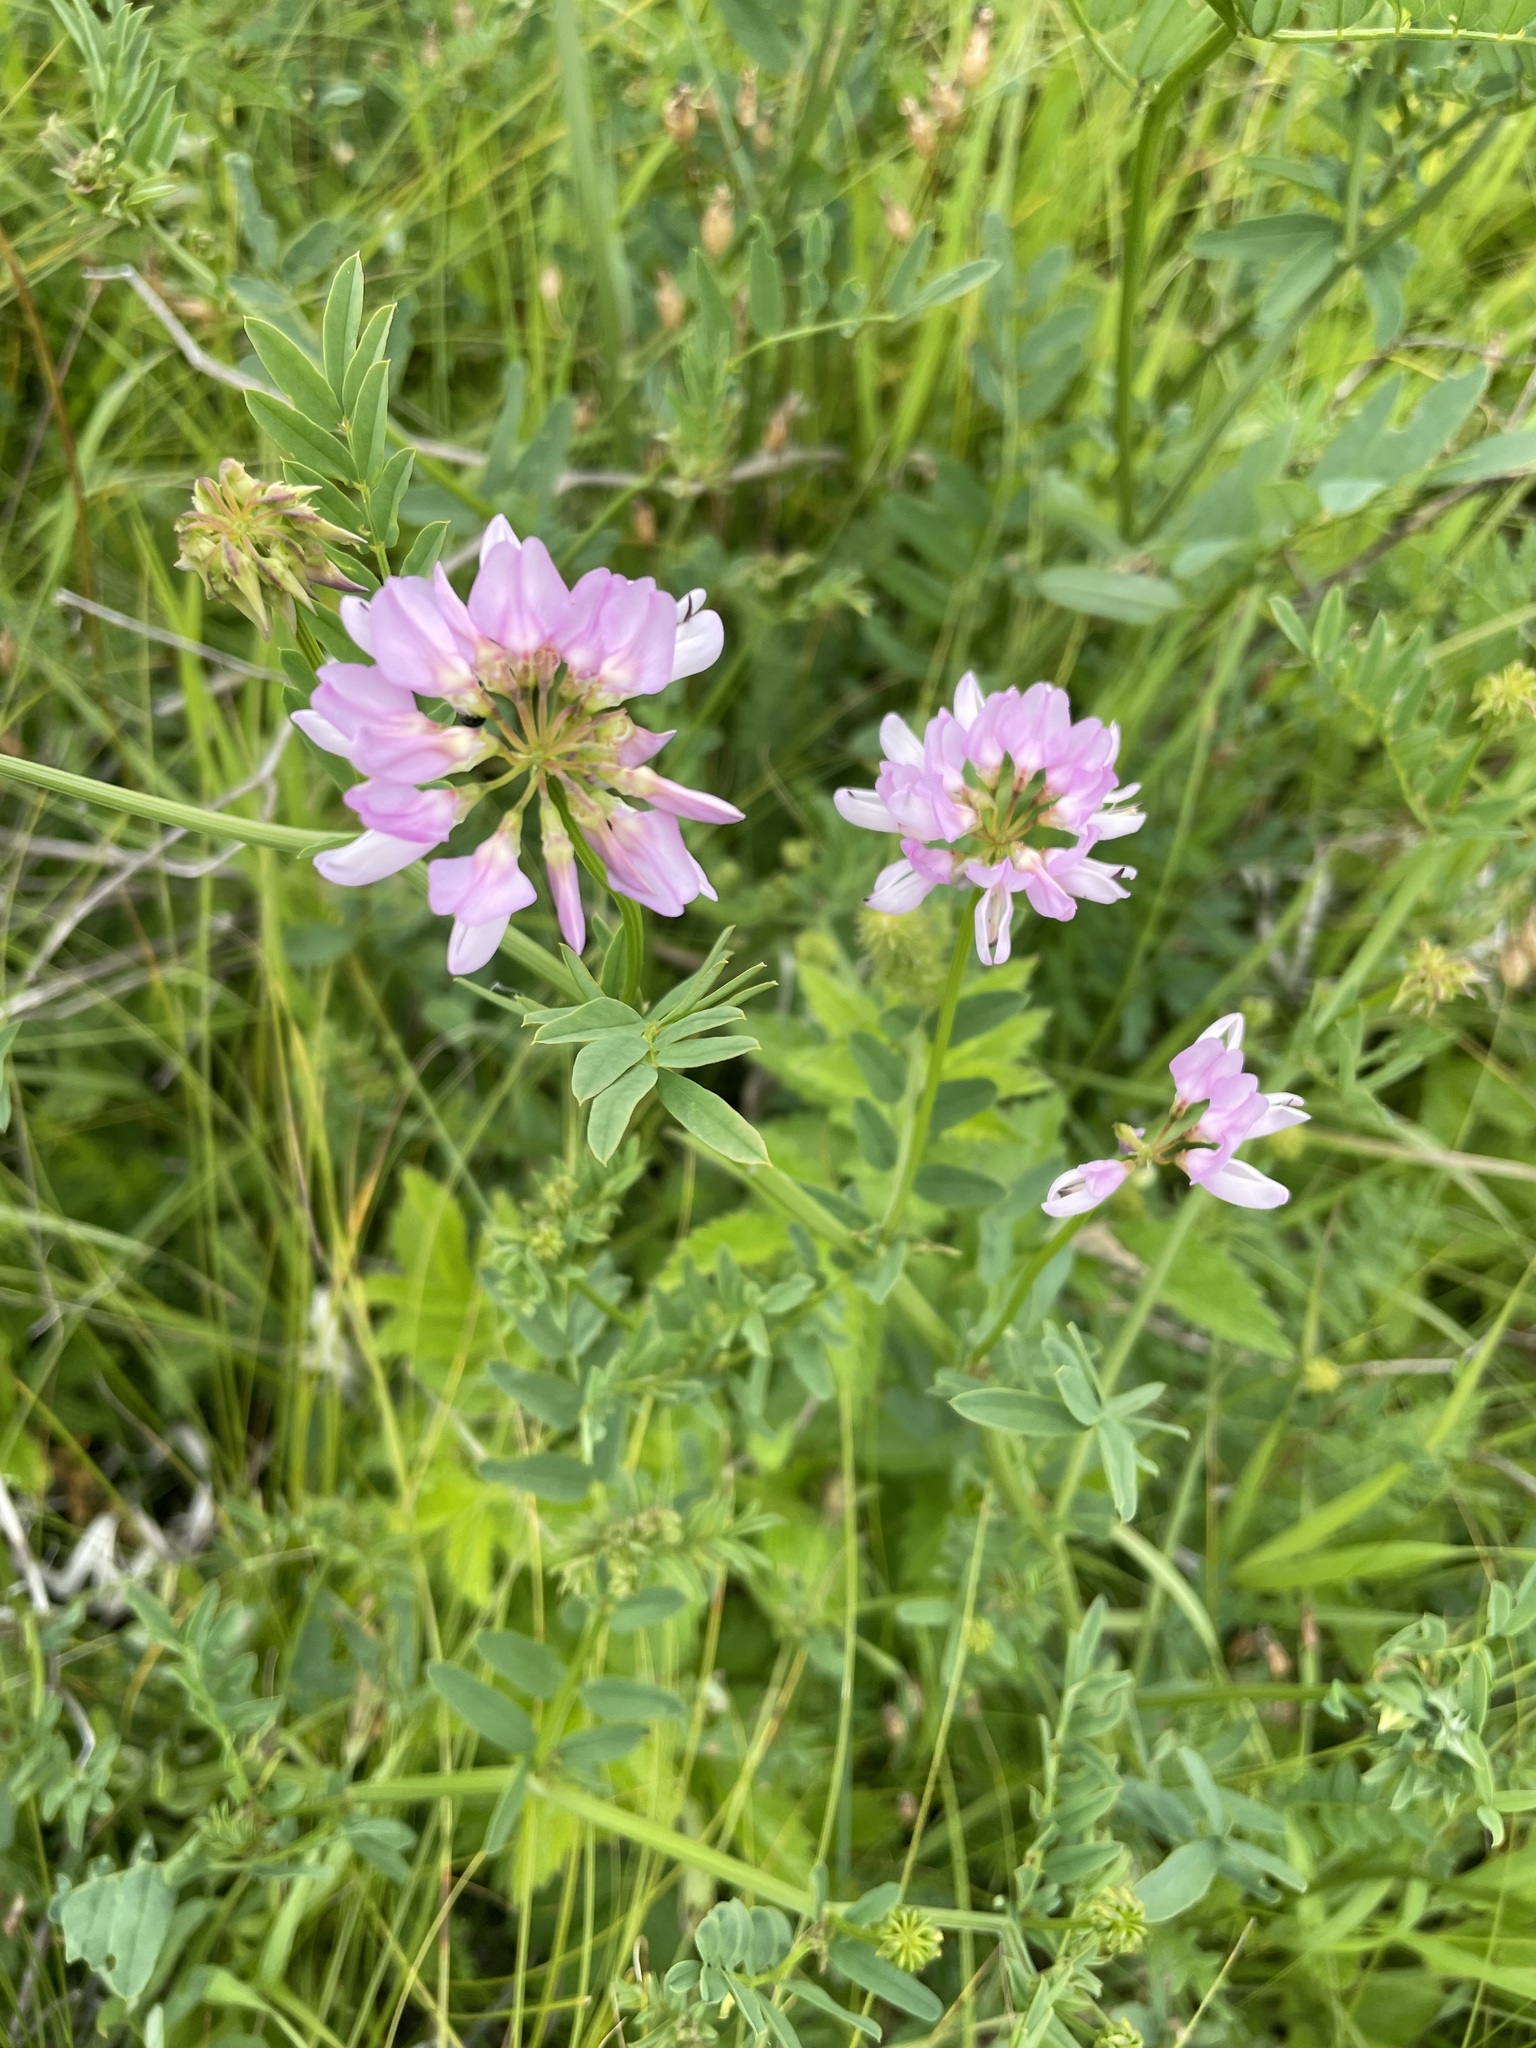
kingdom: Plantae
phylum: Tracheophyta
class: Magnoliopsida
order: Fabales
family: Fabaceae
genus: Coronilla
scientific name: Coronilla varia
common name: Crownvetch
